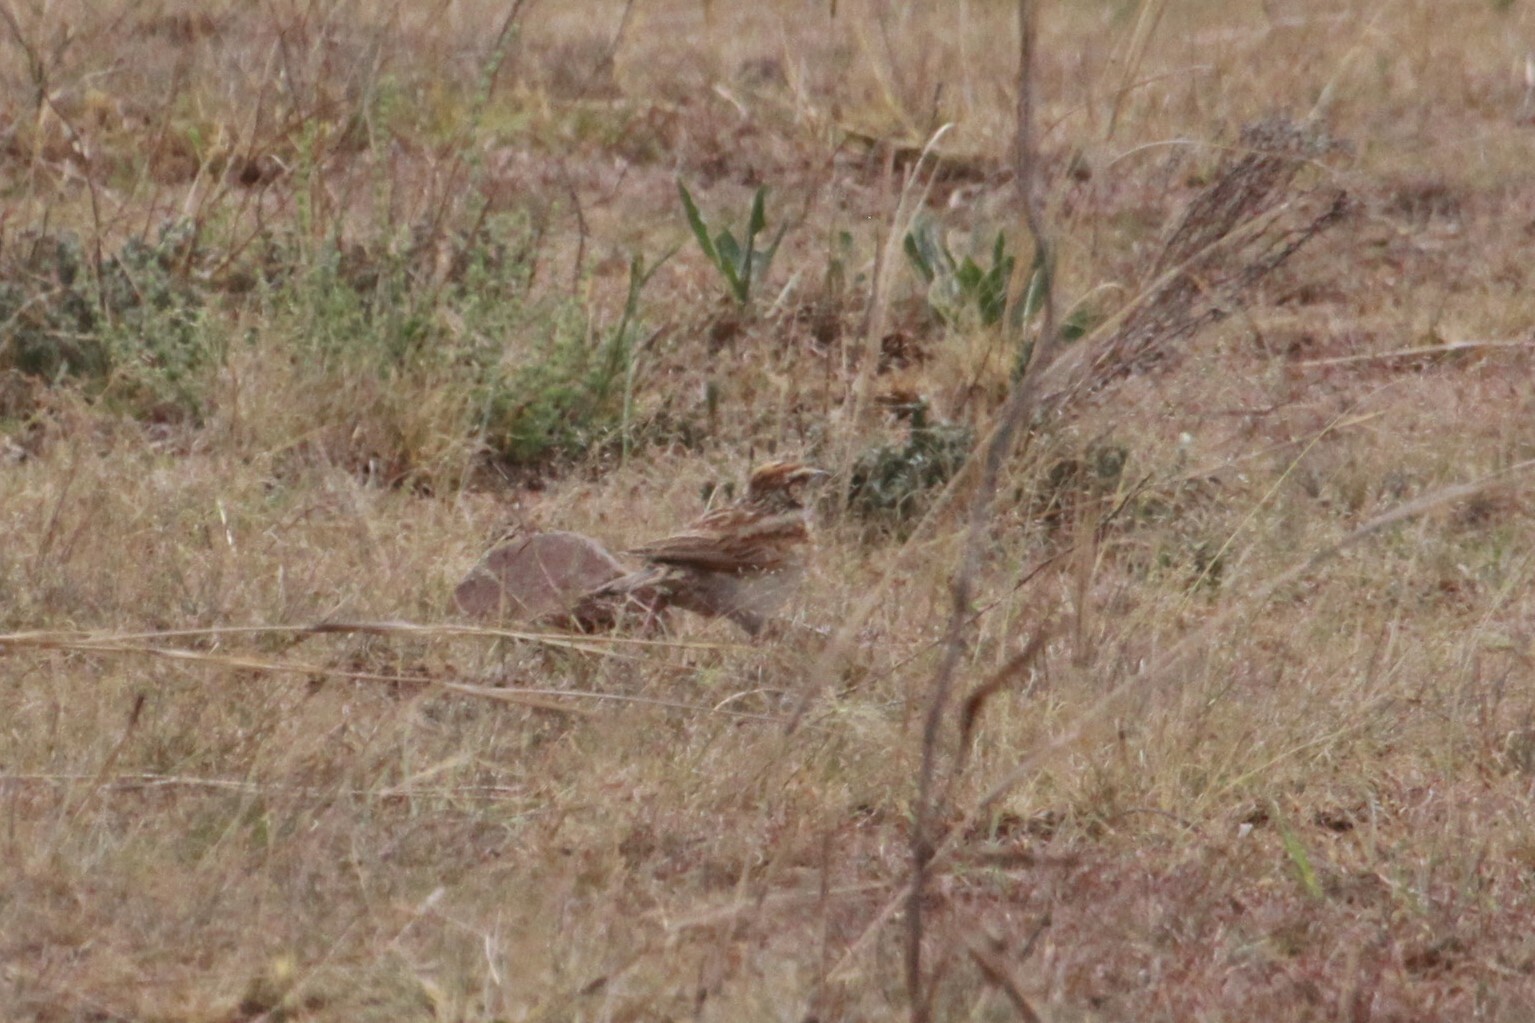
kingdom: Animalia
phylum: Chordata
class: Aves
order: Passeriformes
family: Alaudidae
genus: Calandrella
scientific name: Calandrella cinerea
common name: Red-capped lark
